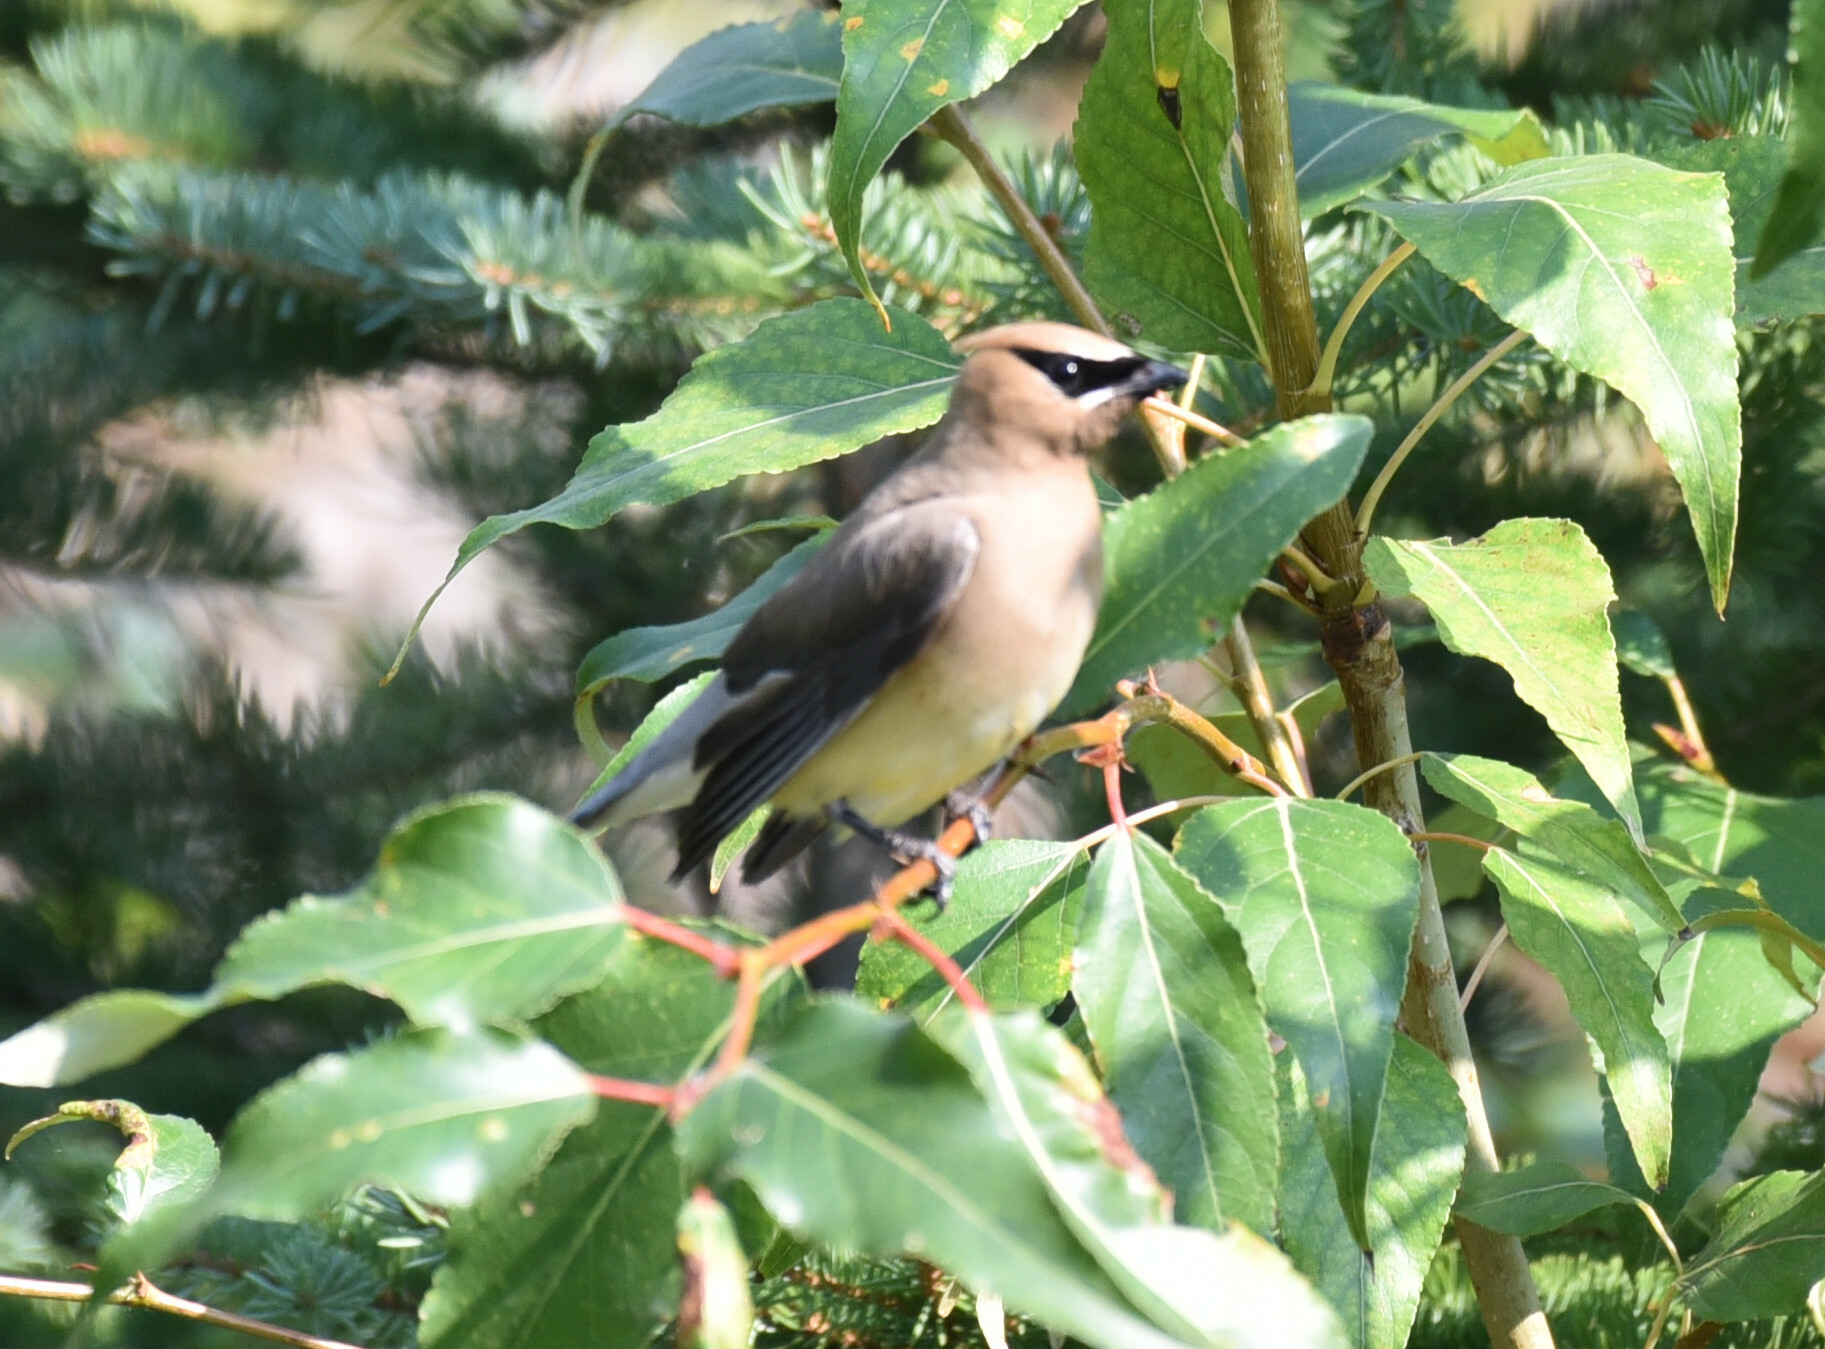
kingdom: Animalia
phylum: Chordata
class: Aves
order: Passeriformes
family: Bombycillidae
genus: Bombycilla
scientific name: Bombycilla cedrorum
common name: Cedar waxwing
